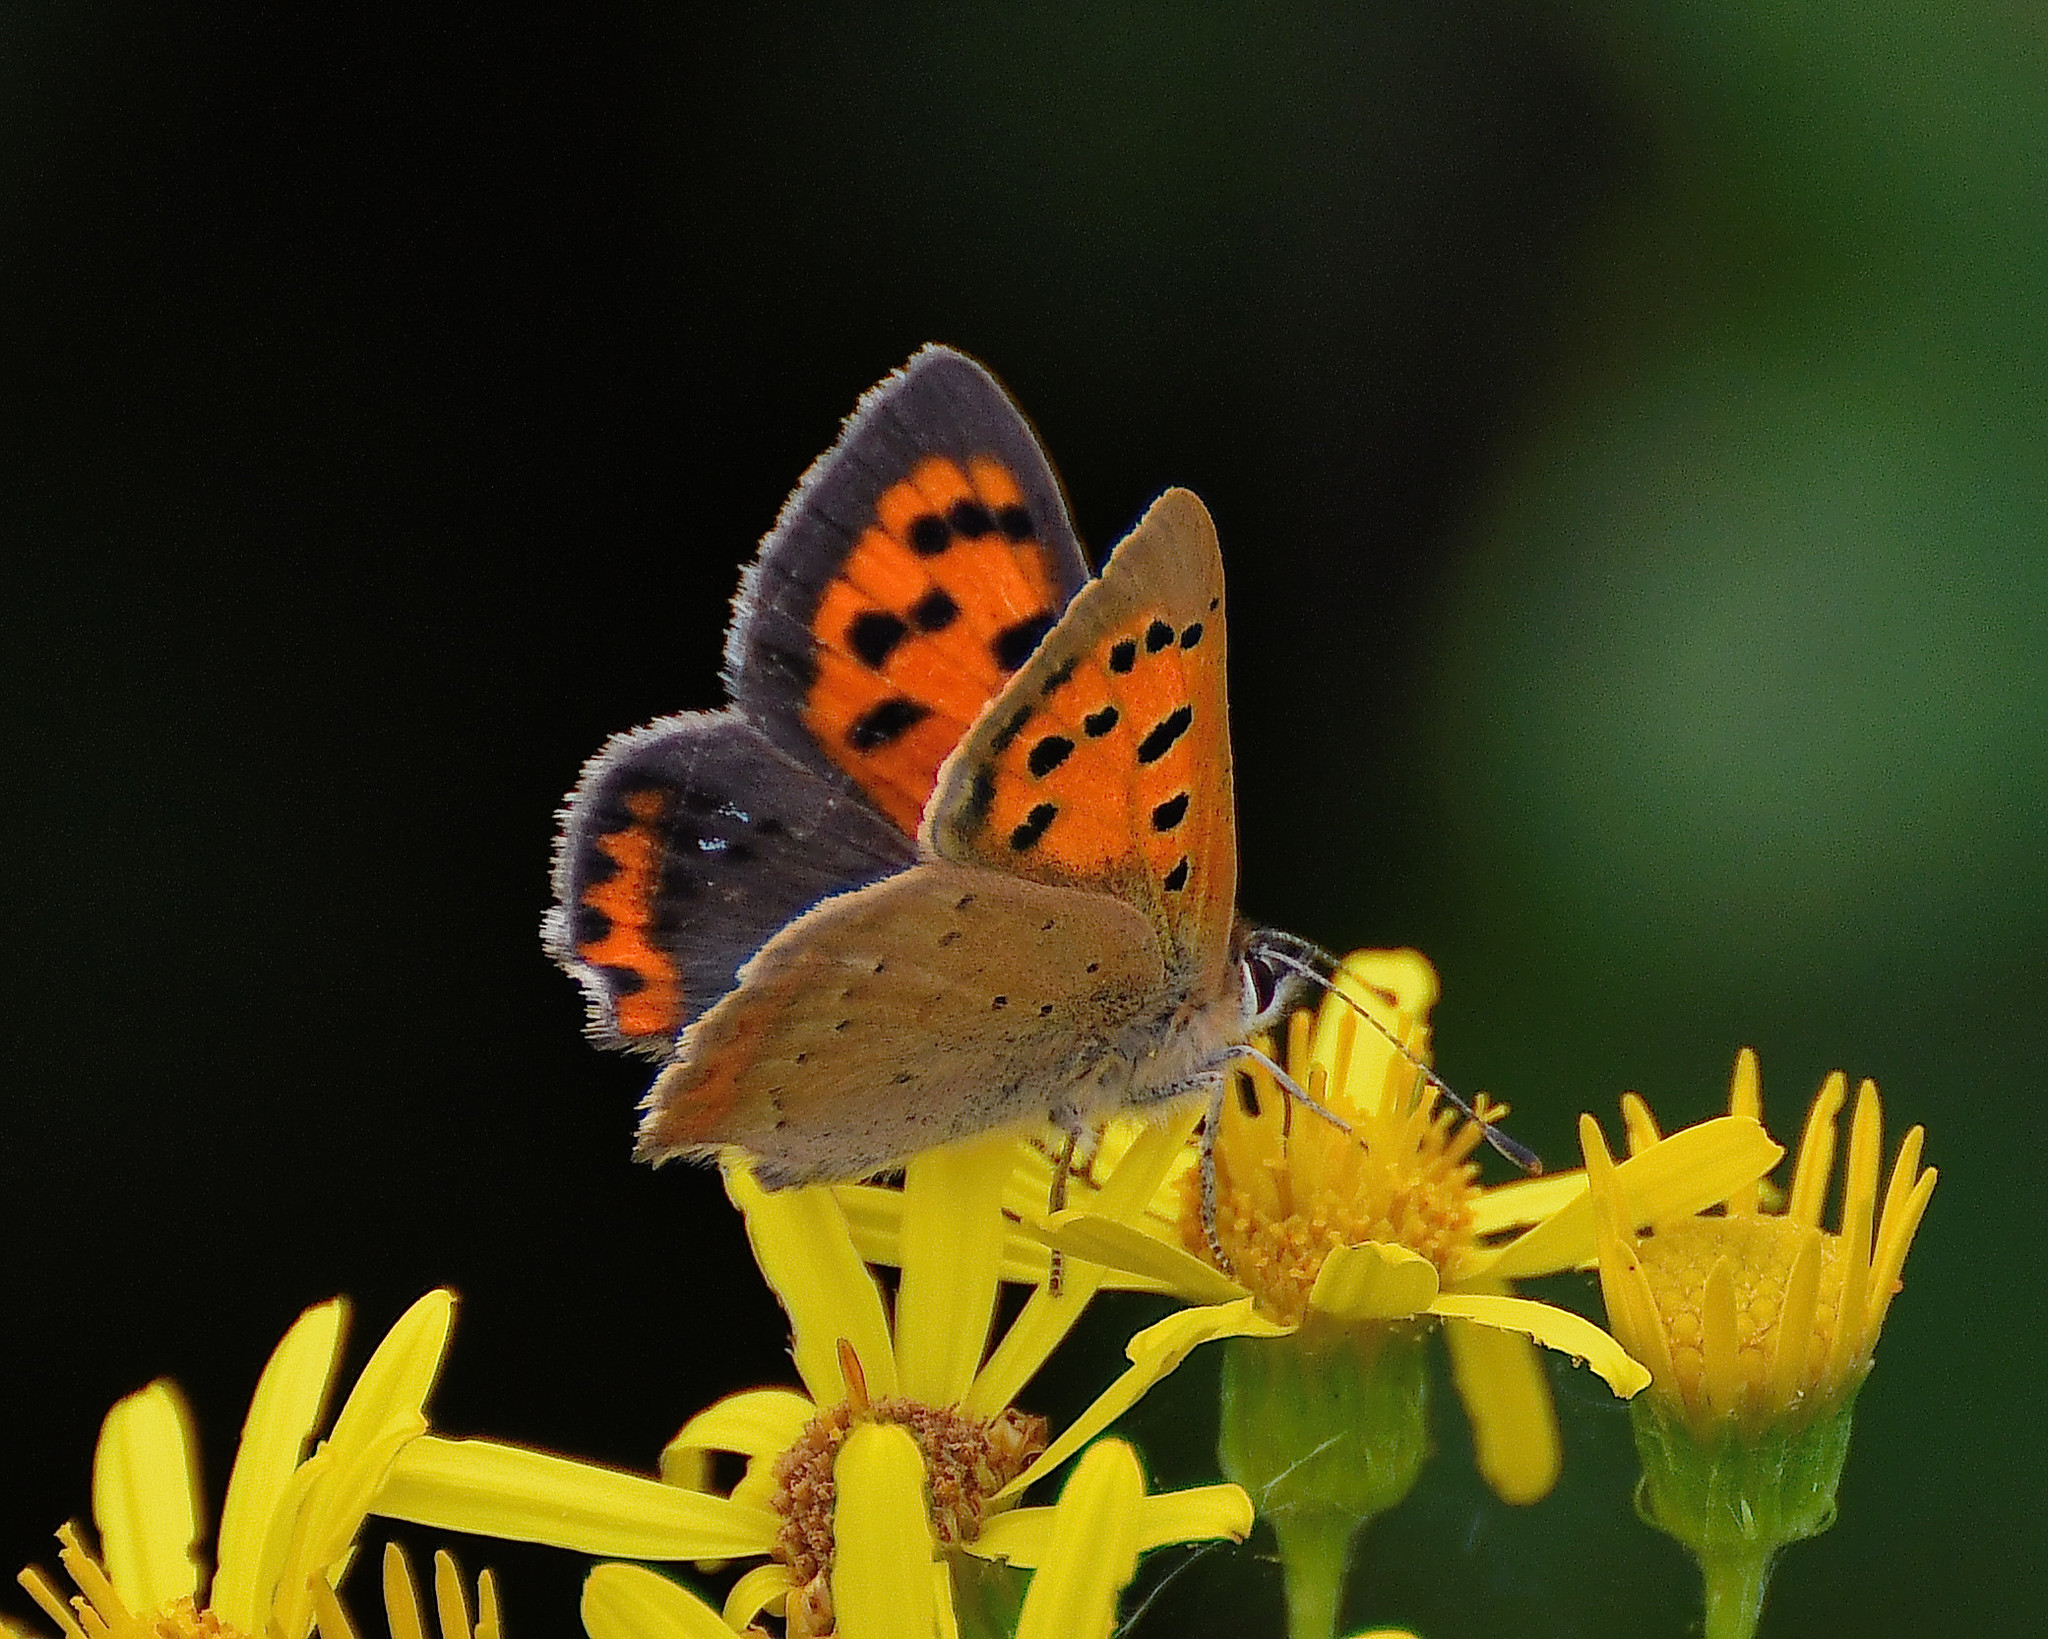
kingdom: Animalia
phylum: Arthropoda
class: Insecta
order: Lepidoptera
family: Lycaenidae
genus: Lycaena
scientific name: Lycaena phlaeas
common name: Small copper
